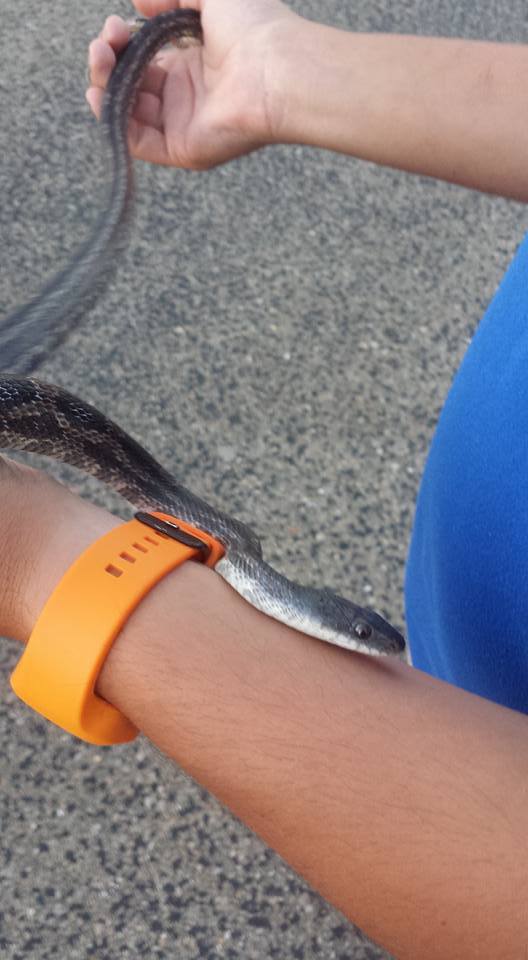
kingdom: Animalia
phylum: Chordata
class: Squamata
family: Colubridae
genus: Pantherophis
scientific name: Pantherophis obsoletus
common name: Black rat snake
